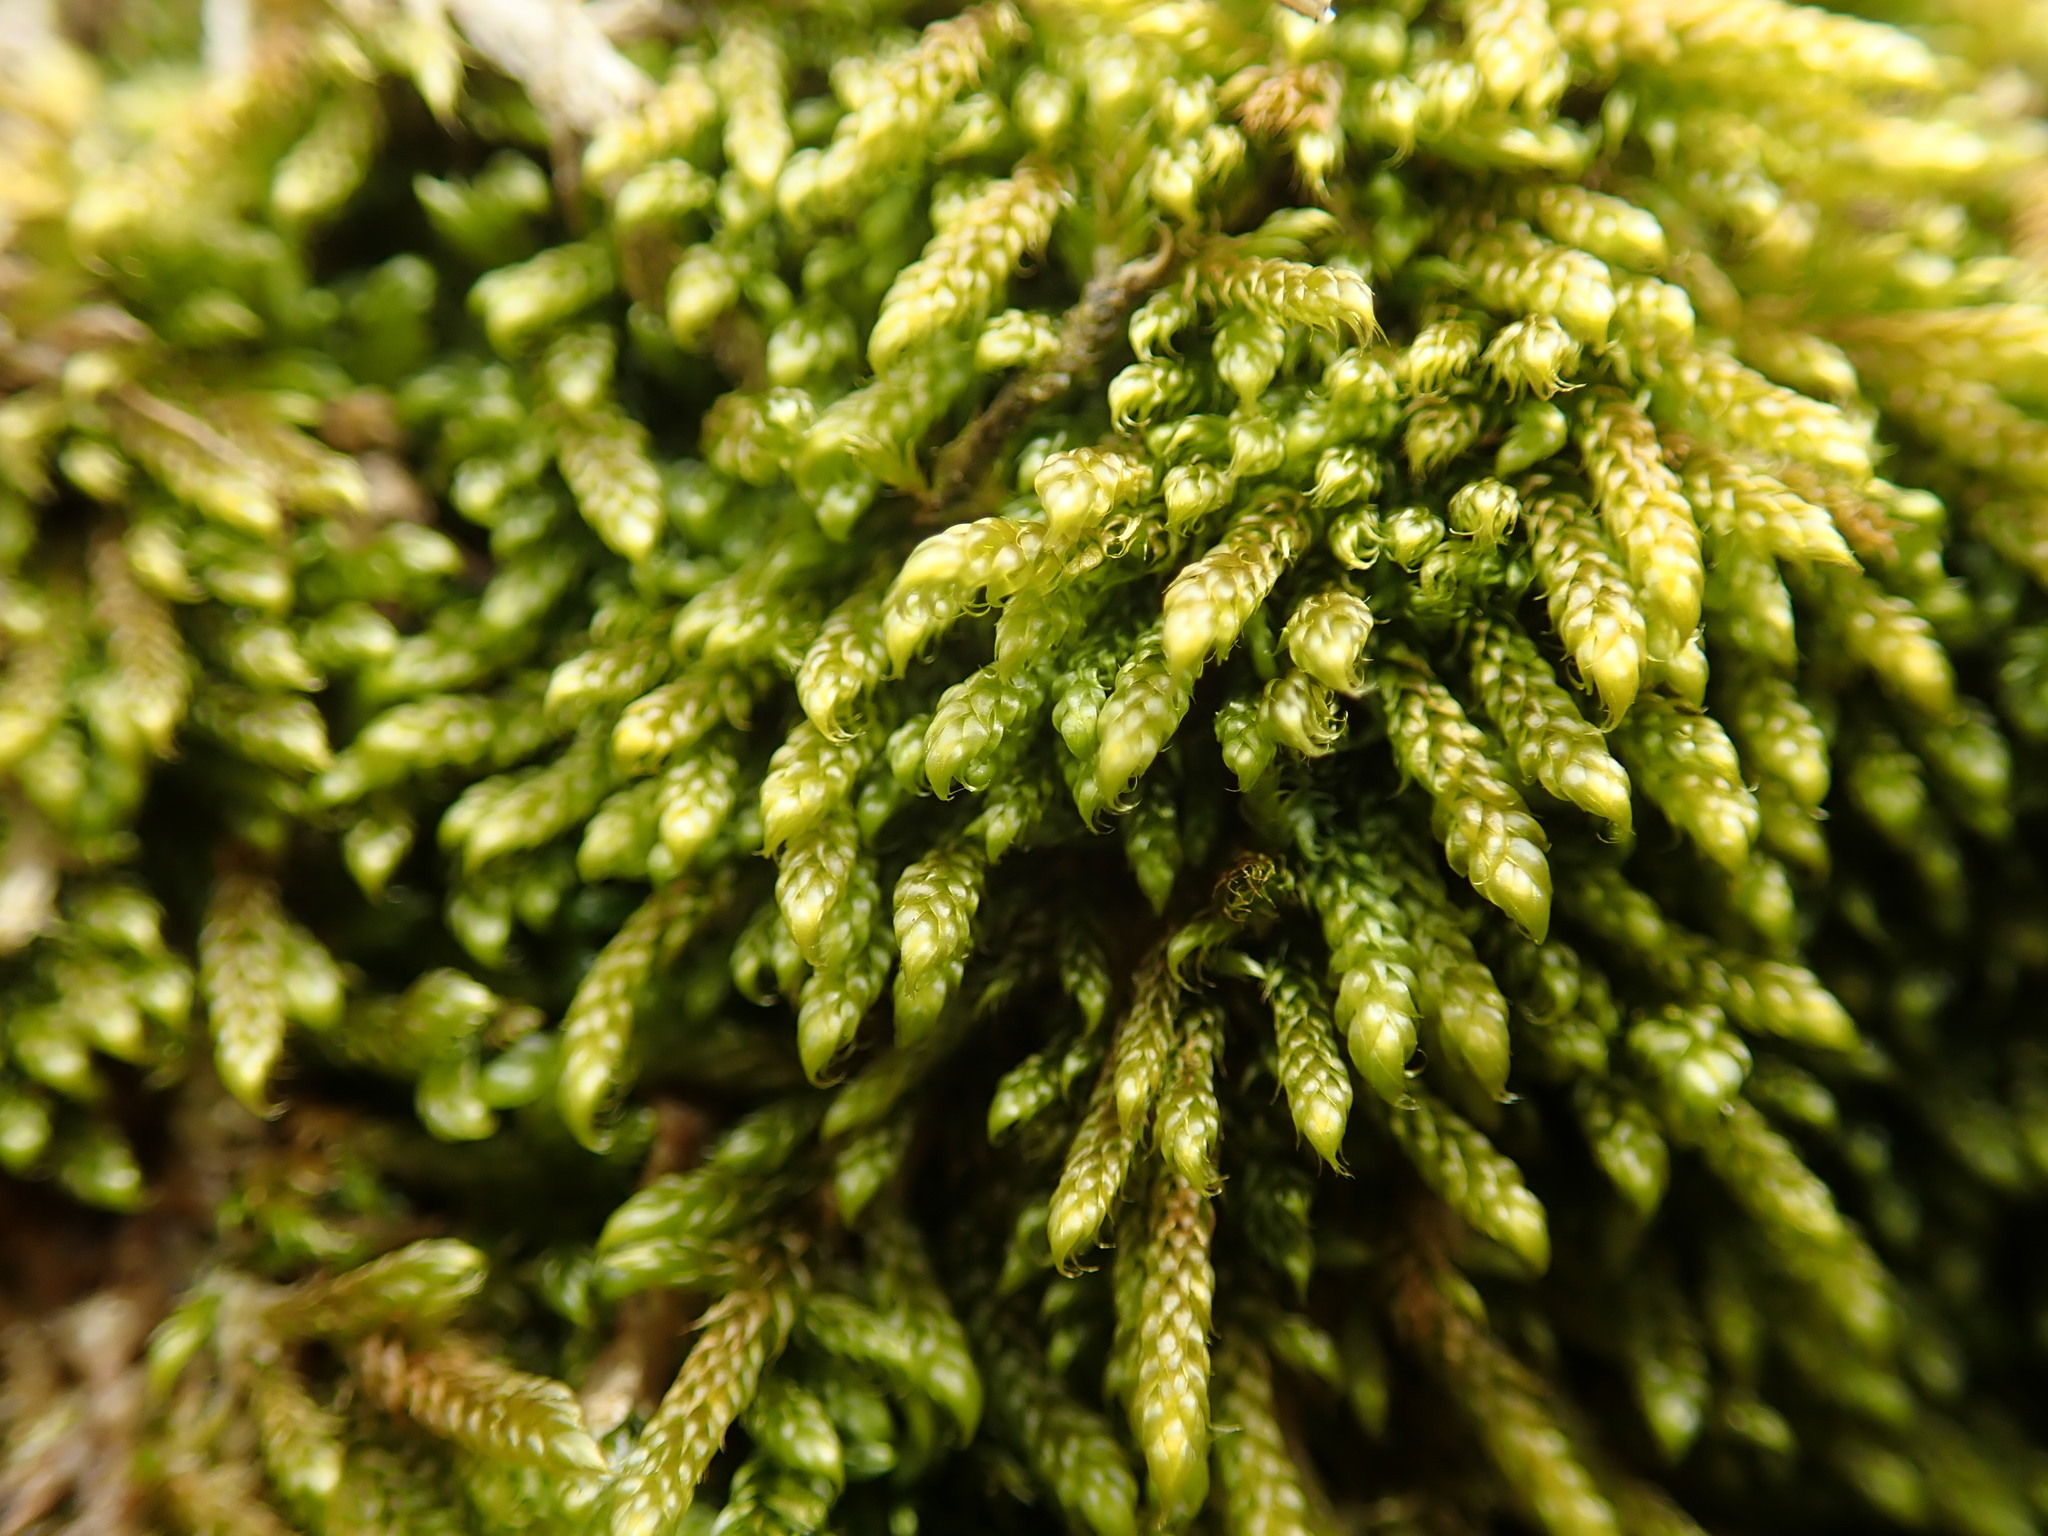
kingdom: Plantae
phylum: Bryophyta
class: Bryopsida
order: Hypnales
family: Hypnaceae
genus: Hypnum
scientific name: Hypnum cupressiforme
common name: Cypress-leaved plait-moss
